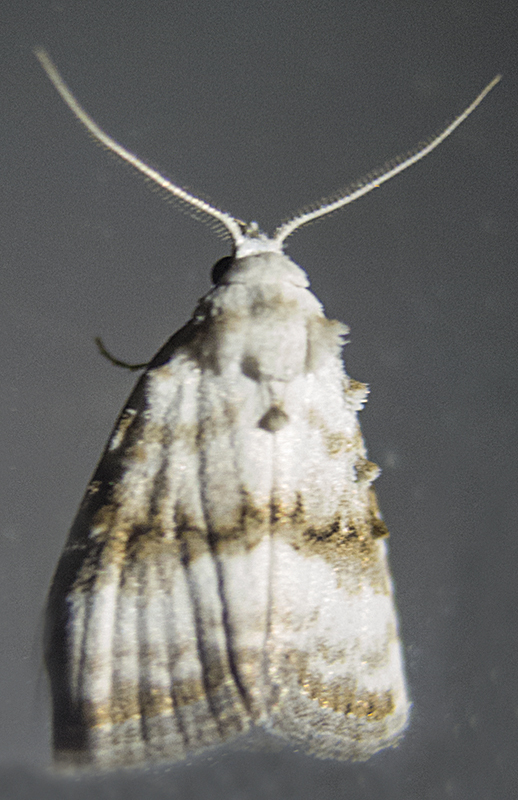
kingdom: Animalia
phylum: Arthropoda
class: Insecta
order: Lepidoptera
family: Nolidae
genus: Meganola
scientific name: Meganola albula
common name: Kent black arches
